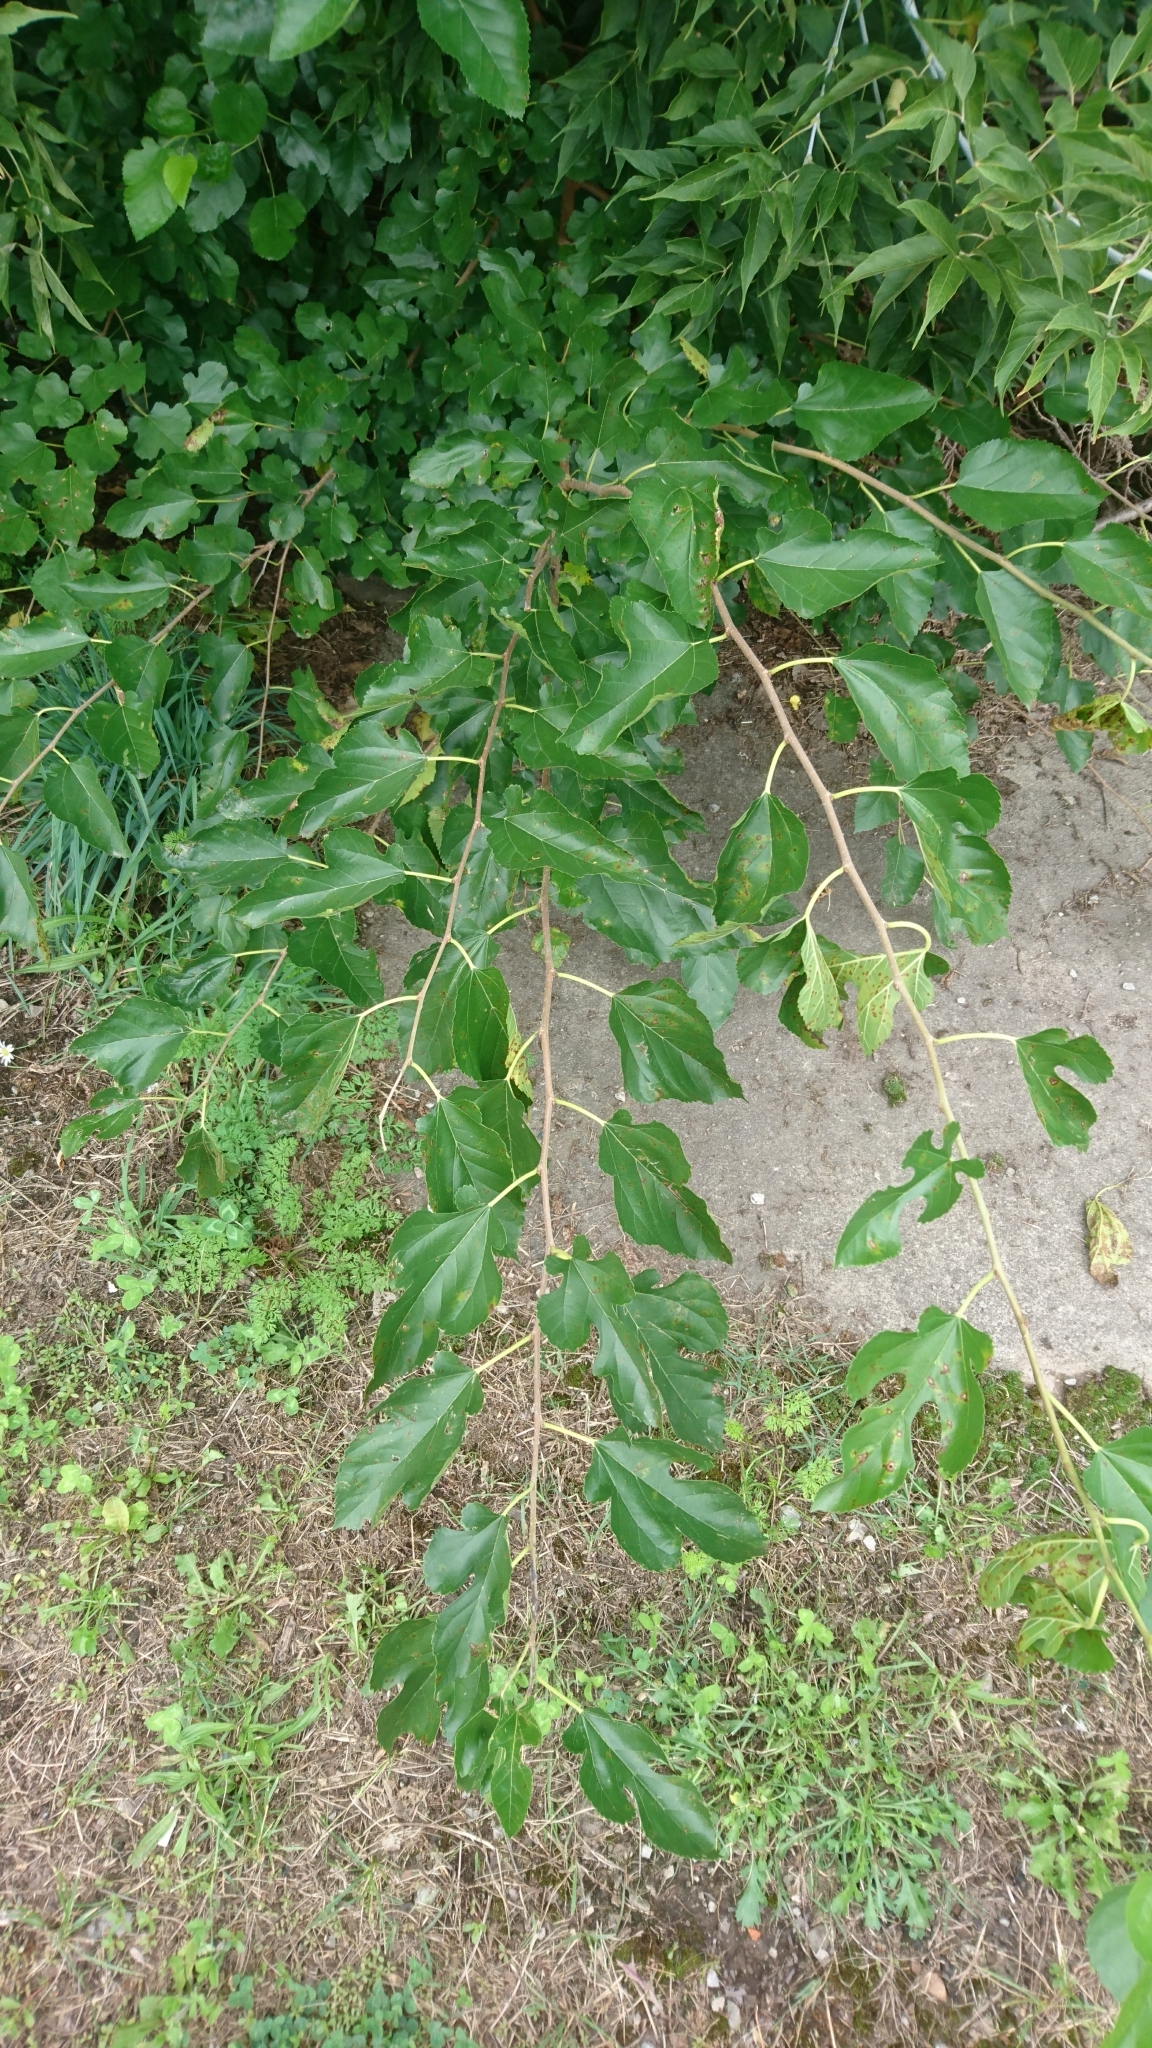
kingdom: Plantae
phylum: Tracheophyta
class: Magnoliopsida
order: Rosales
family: Moraceae
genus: Morus
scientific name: Morus alba
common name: White mulberry
